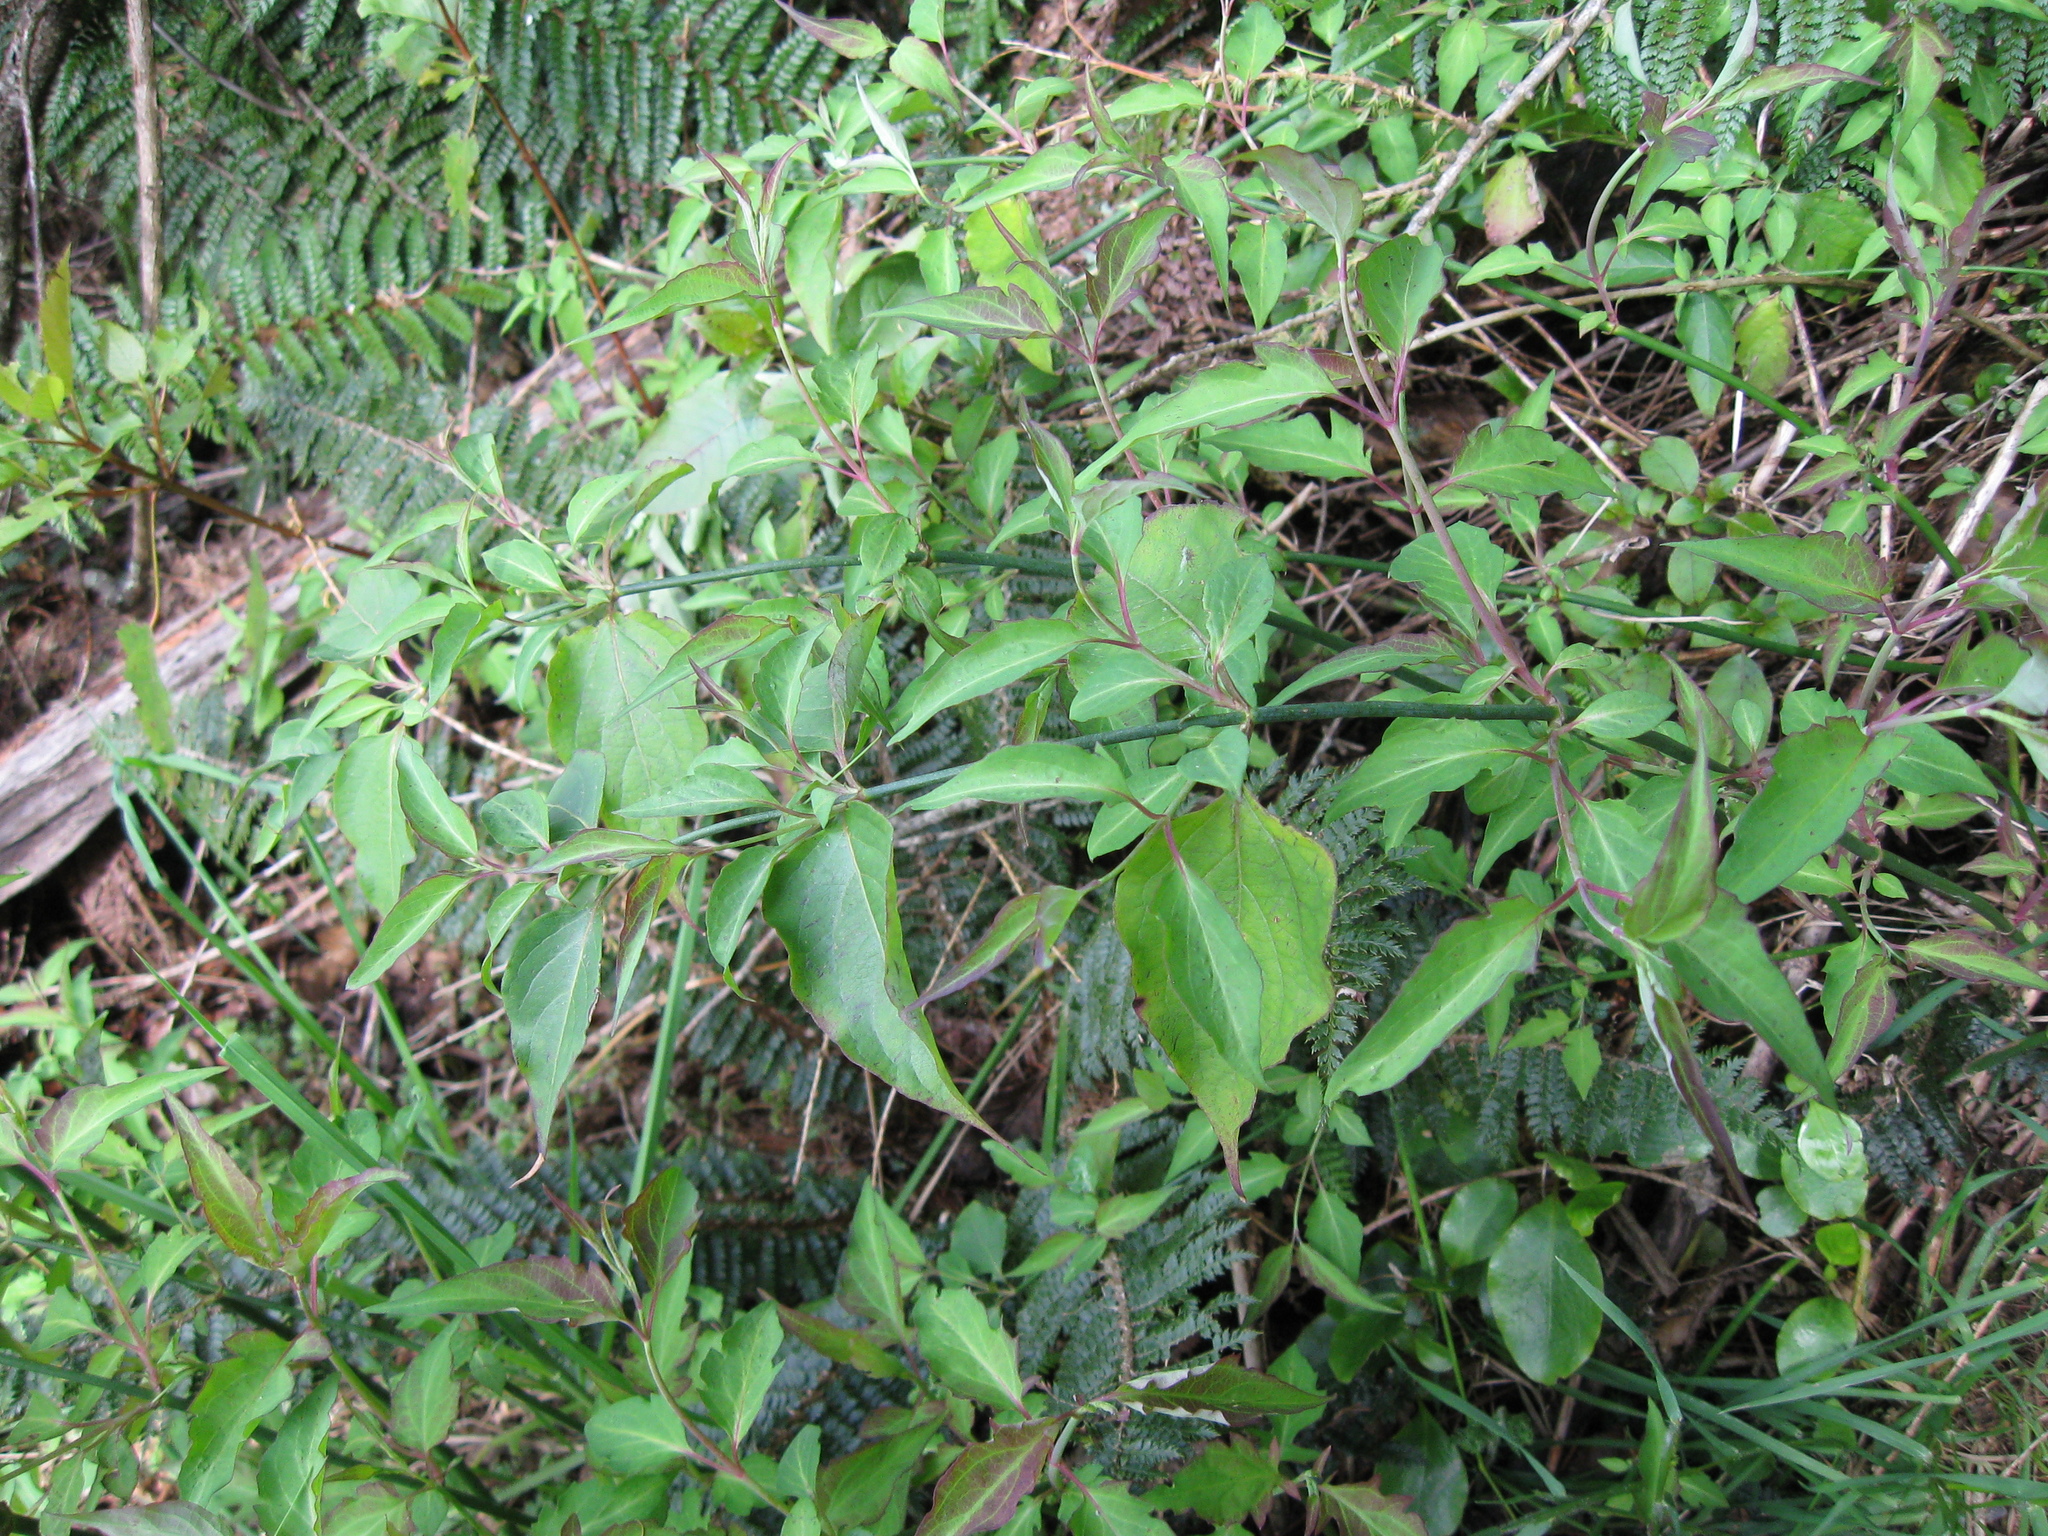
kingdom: Plantae
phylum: Tracheophyta
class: Magnoliopsida
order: Dipsacales
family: Caprifoliaceae
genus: Leycesteria
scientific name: Leycesteria formosa
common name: Himalayan honeysuckle
